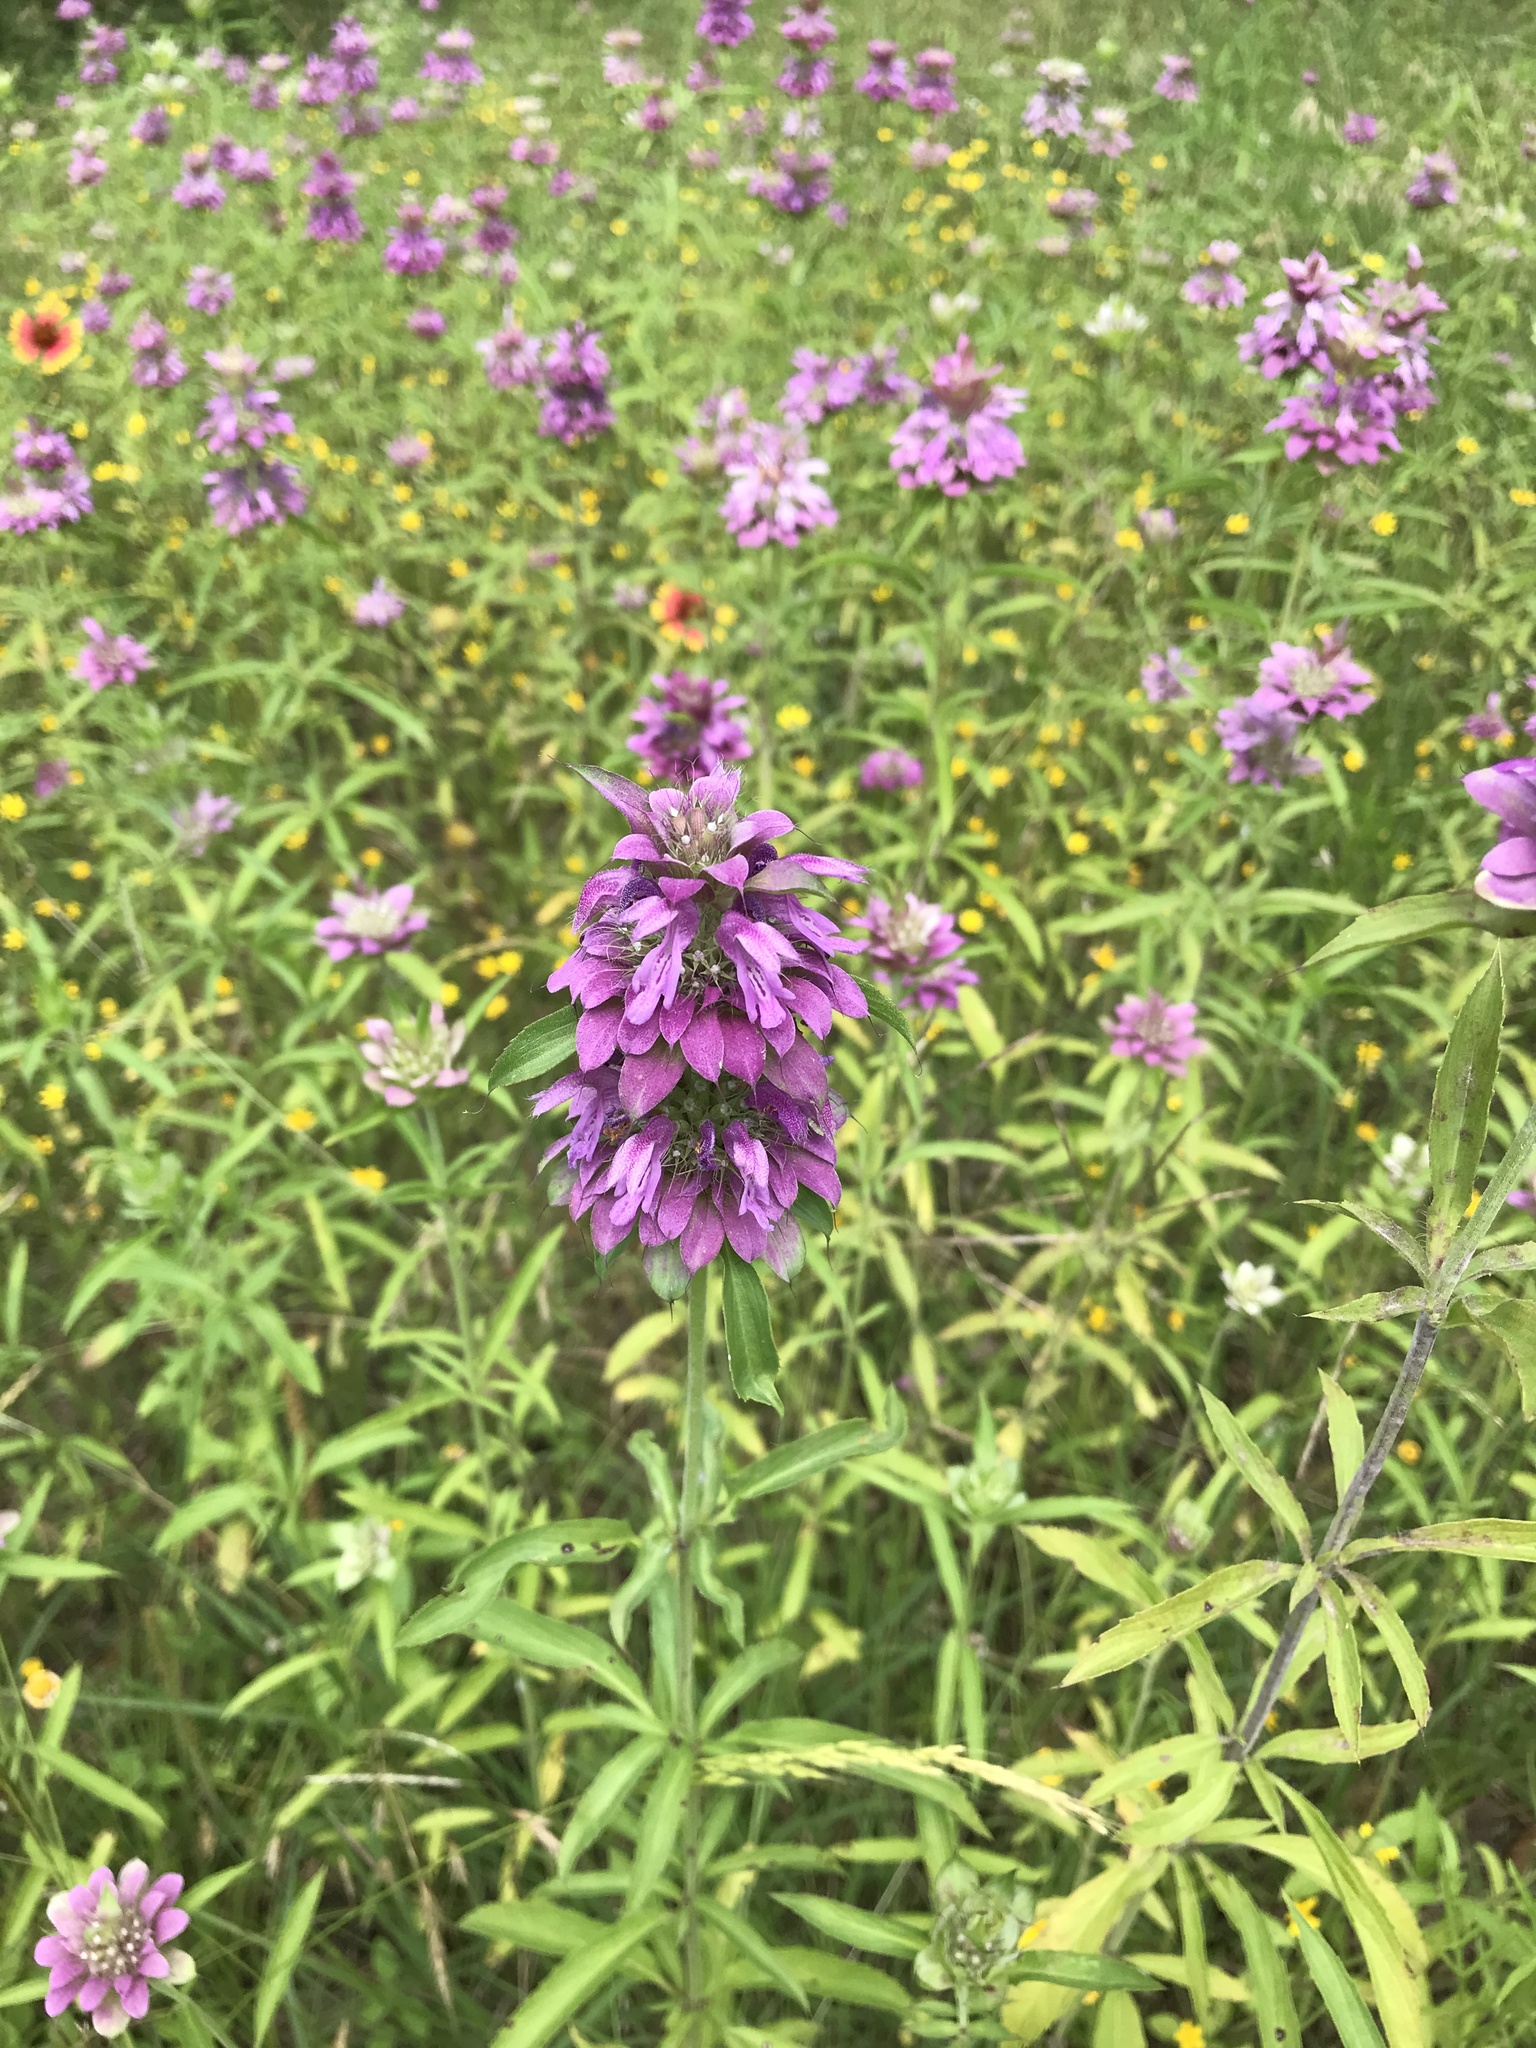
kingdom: Plantae
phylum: Tracheophyta
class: Magnoliopsida
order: Lamiales
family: Lamiaceae
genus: Monarda
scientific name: Monarda citriodora
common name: Lemon beebalm
